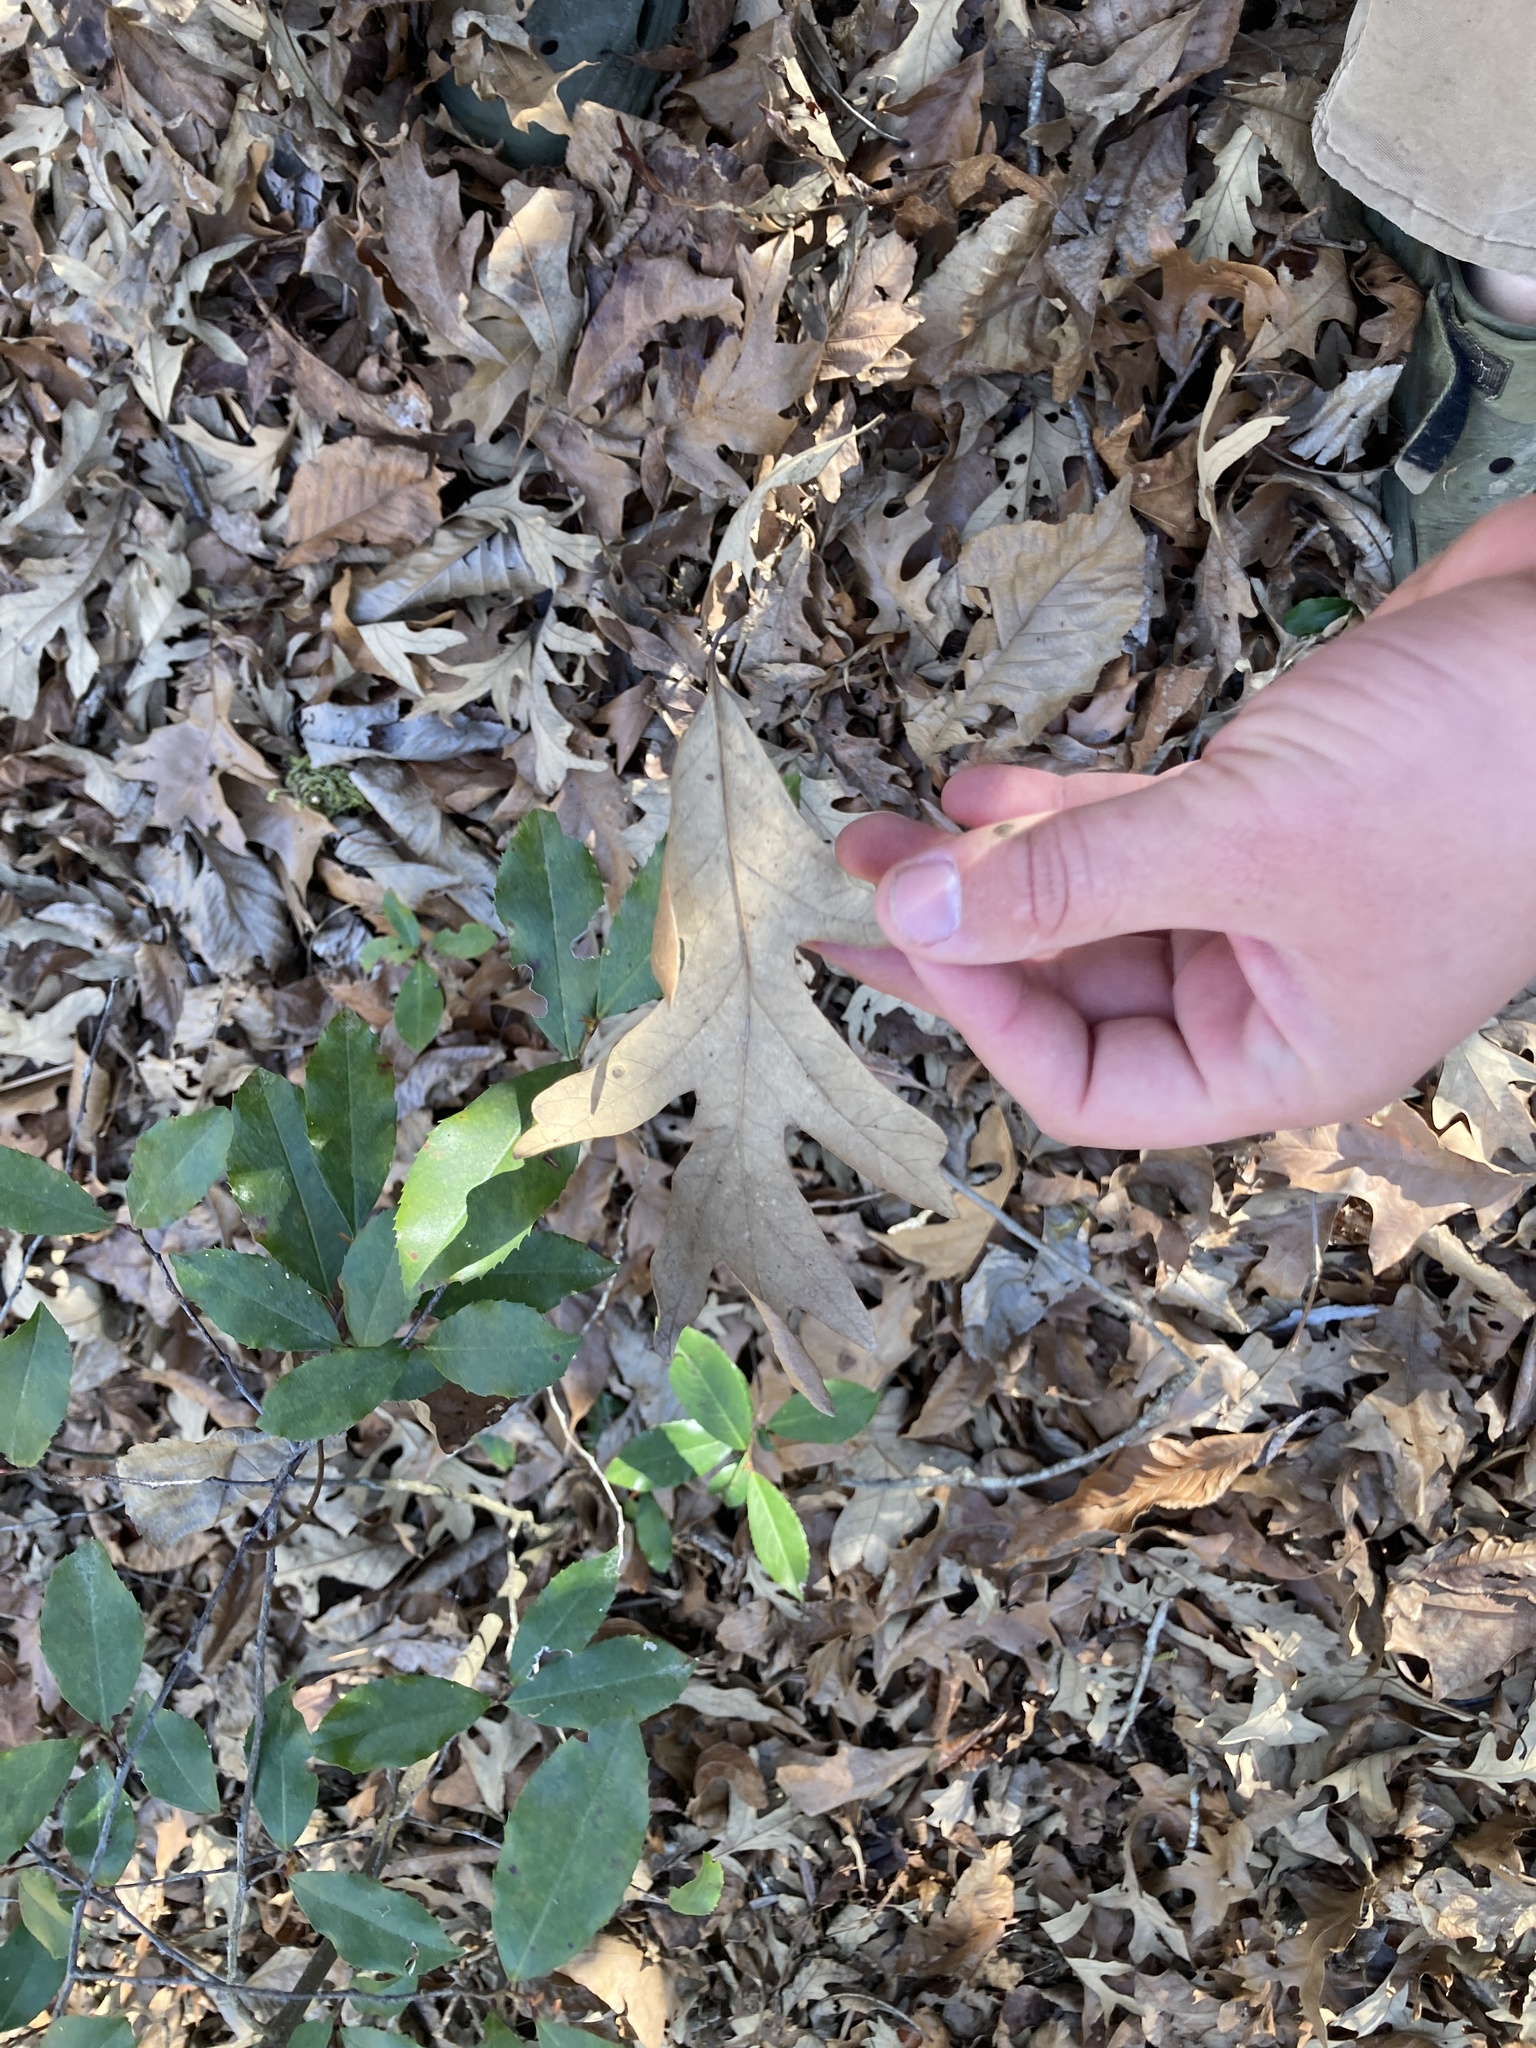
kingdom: Plantae
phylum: Tracheophyta
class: Magnoliopsida
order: Fagales
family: Fagaceae
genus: Quercus
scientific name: Quercus lyrata
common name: Overcup oak
